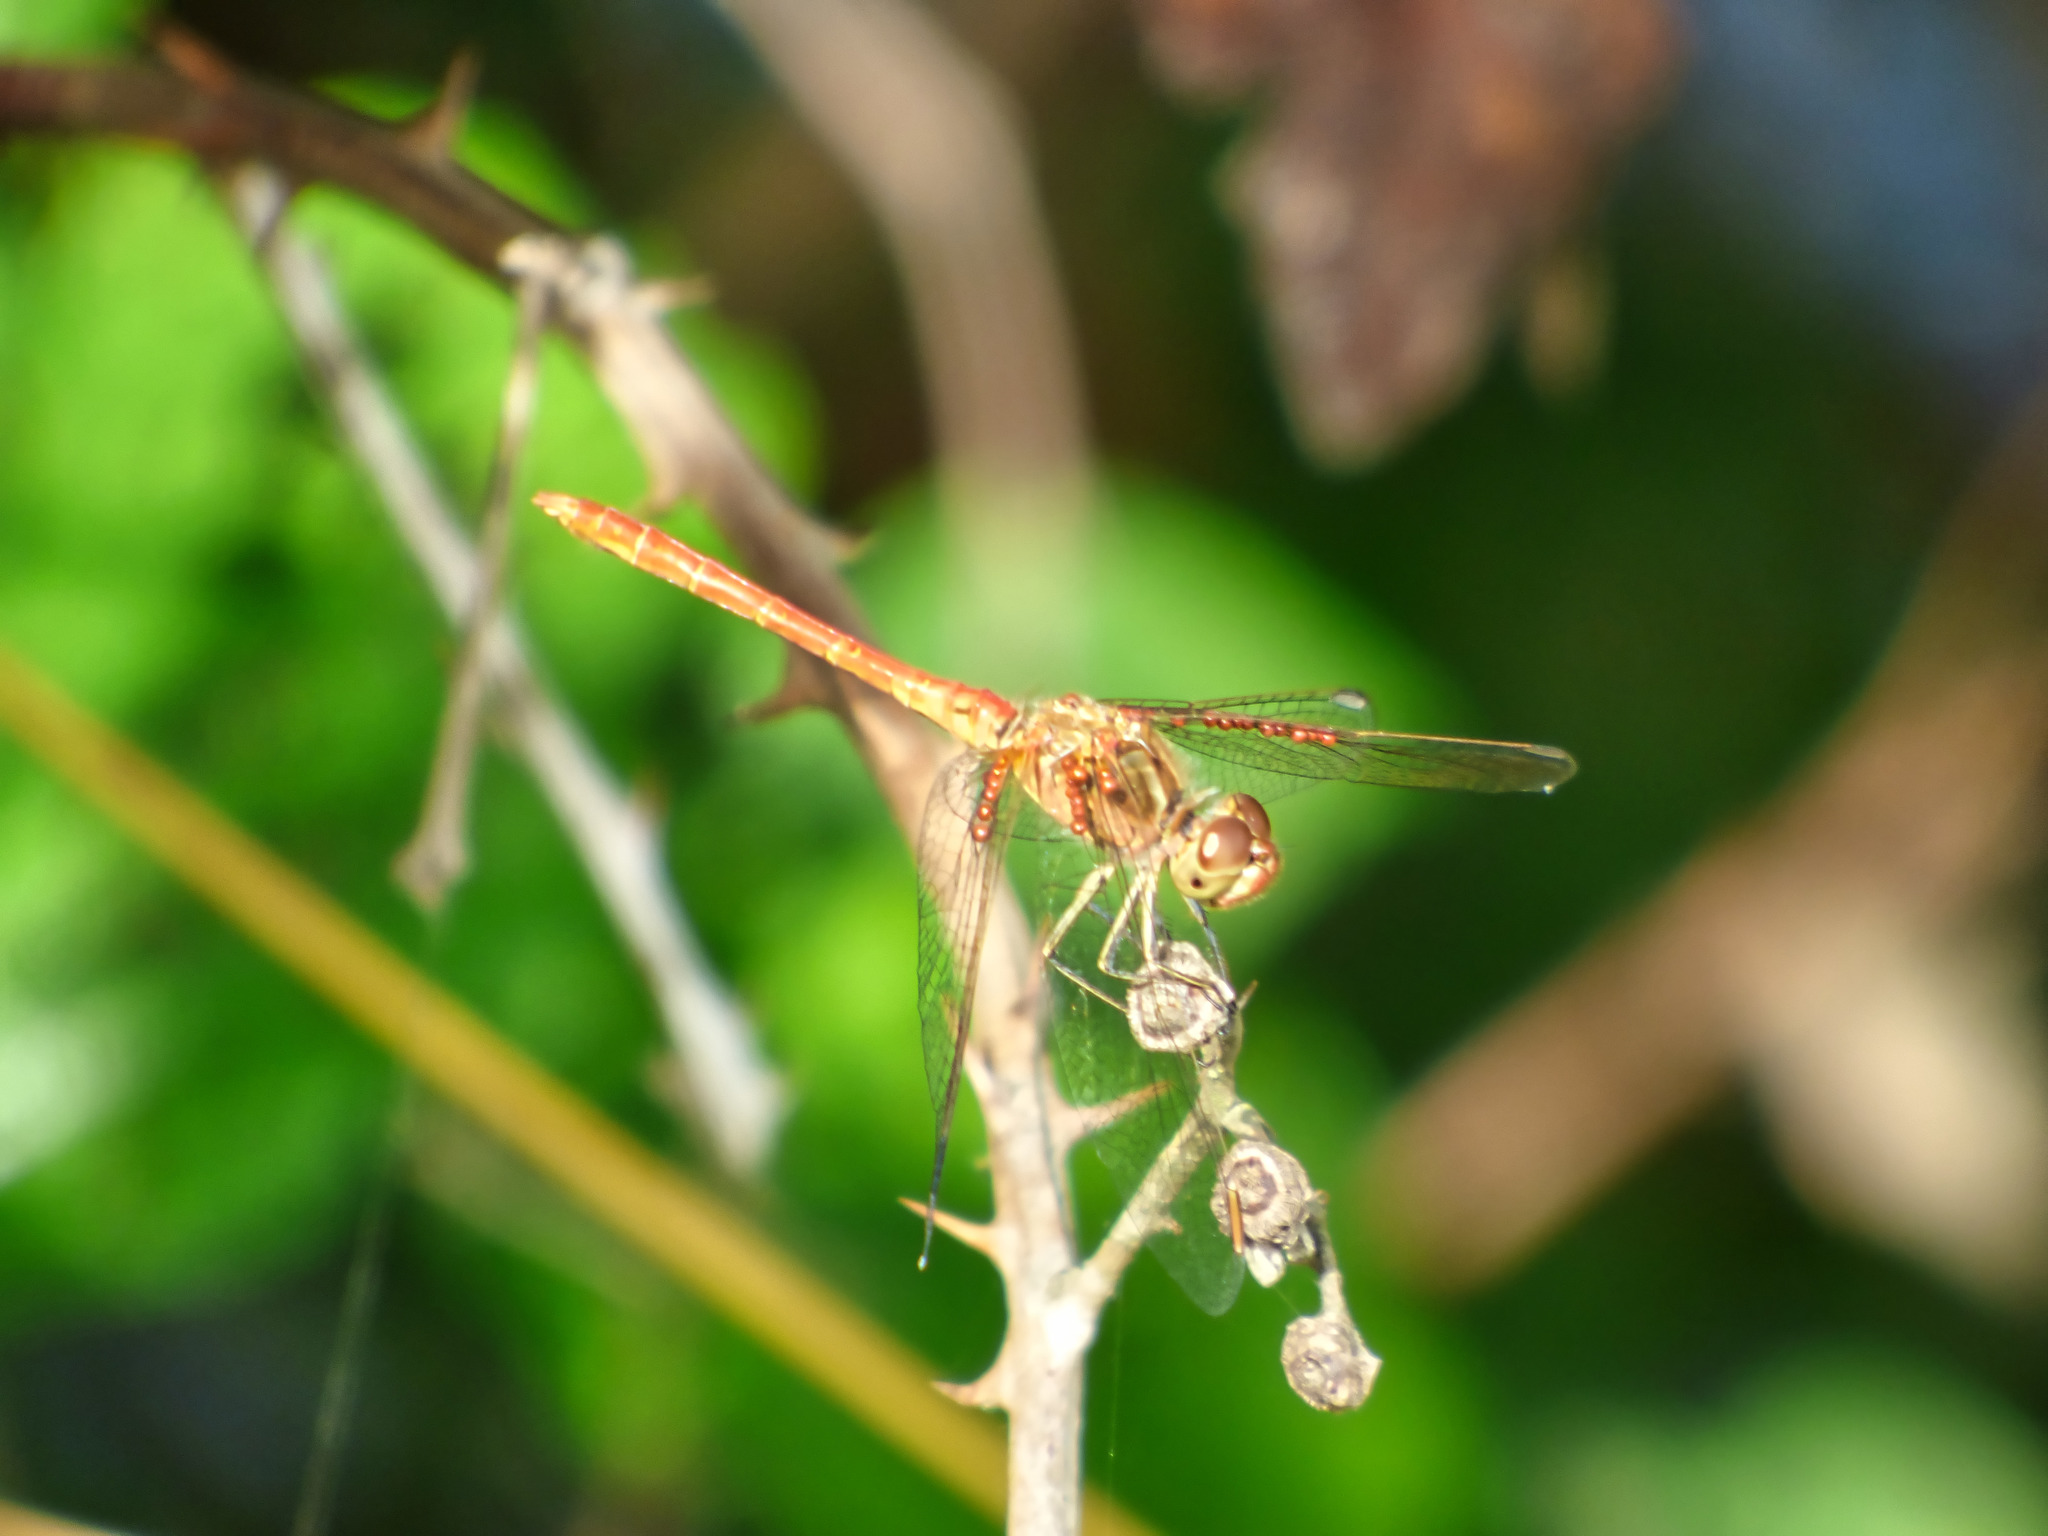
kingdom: Animalia
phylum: Arthropoda
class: Insecta
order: Odonata
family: Libellulidae
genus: Sympetrum
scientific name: Sympetrum meridionale
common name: Southern darter
